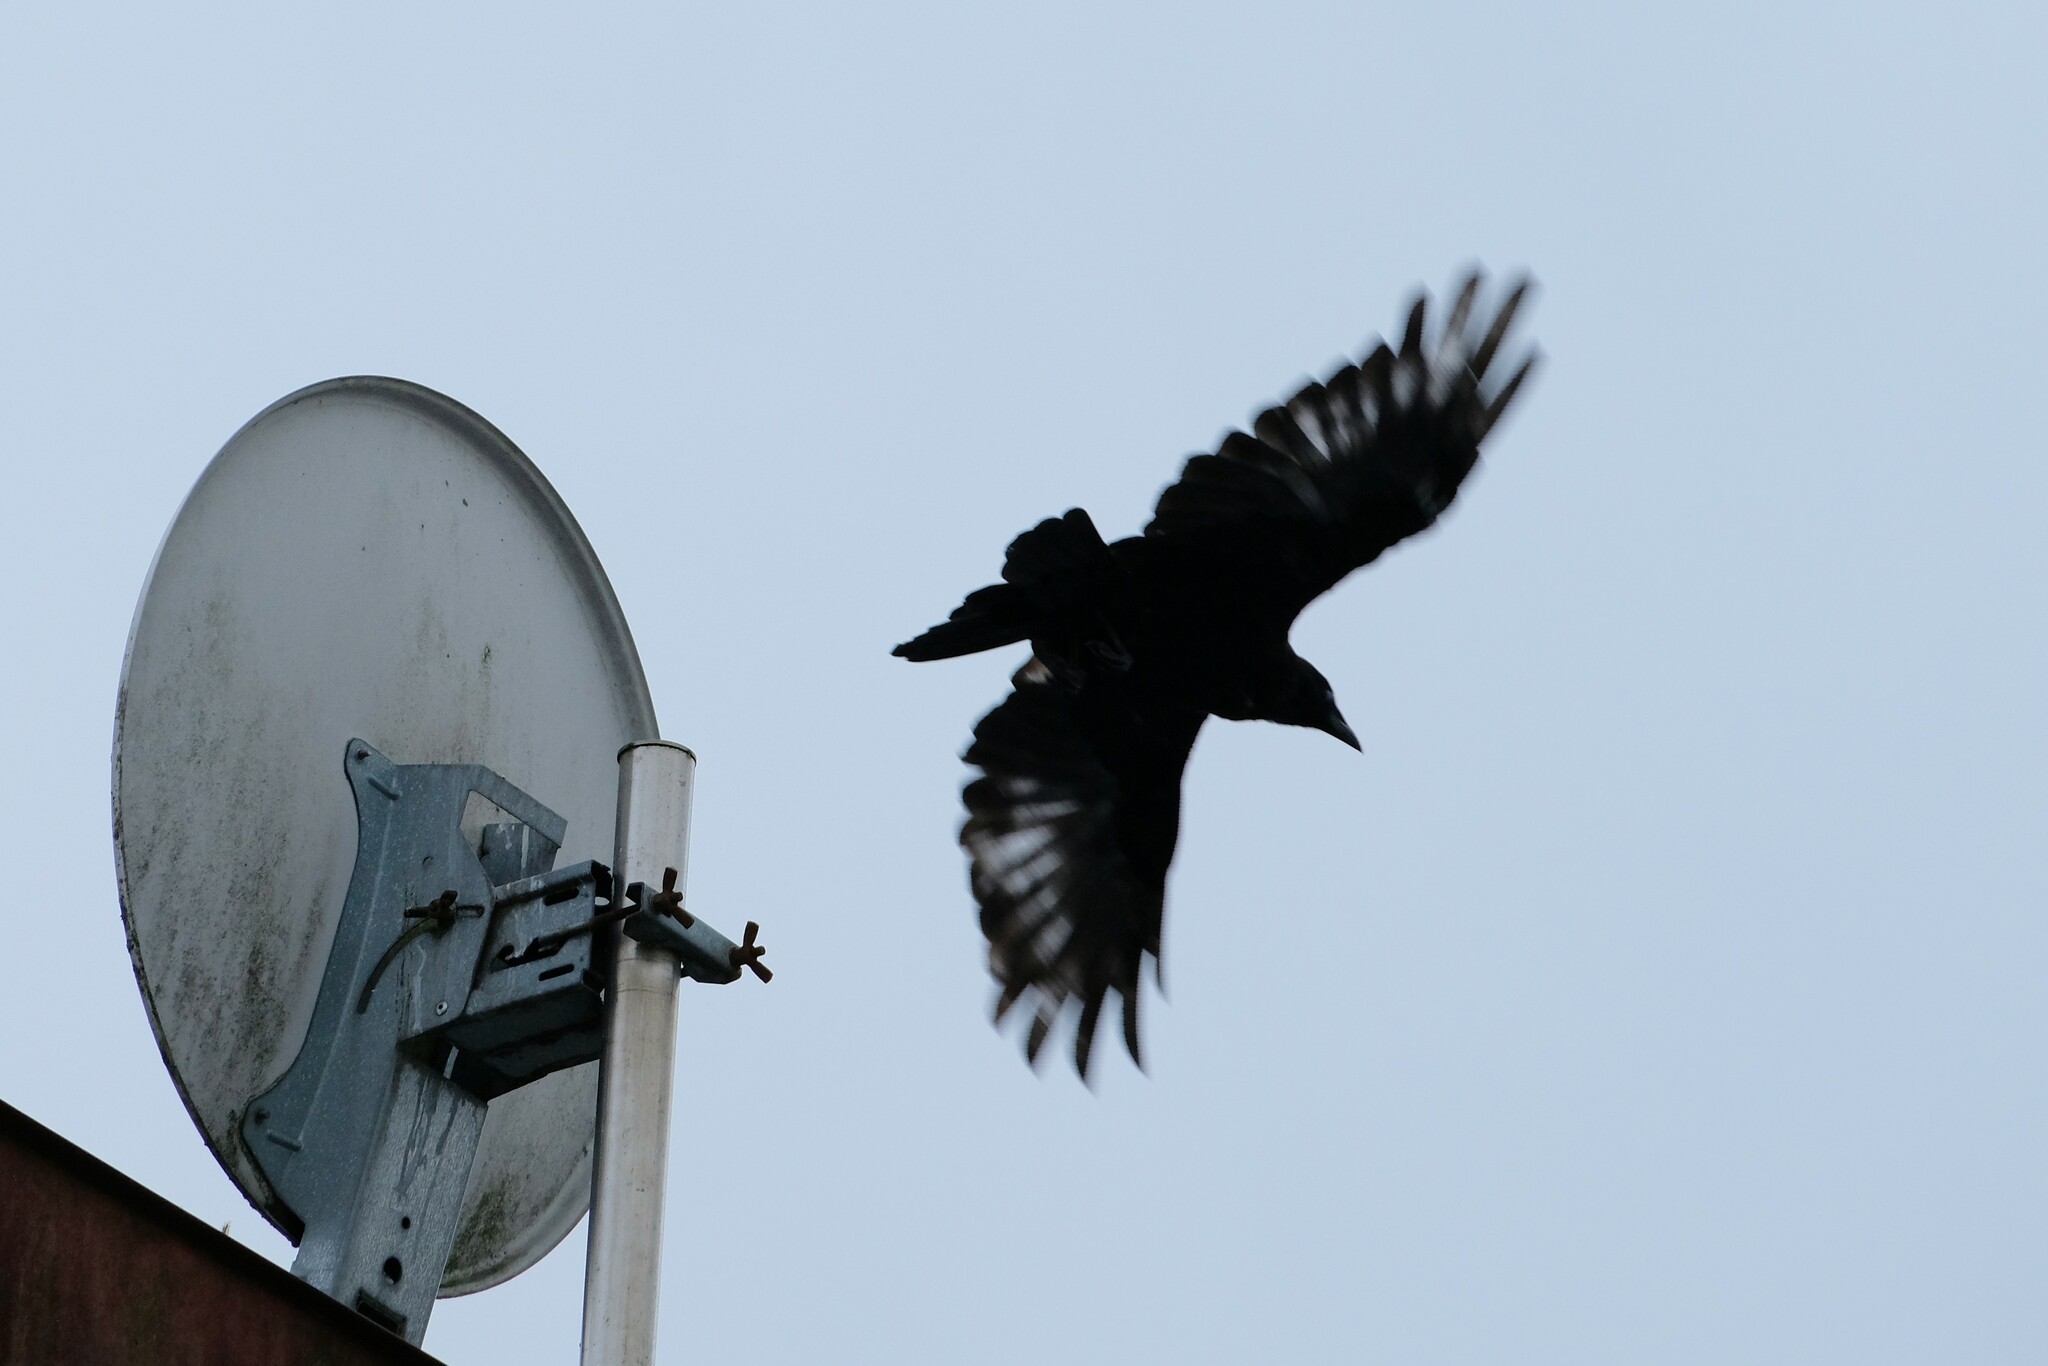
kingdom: Animalia
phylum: Chordata
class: Aves
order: Passeriformes
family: Corvidae
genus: Corvus
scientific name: Corvus corone
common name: Carrion crow
